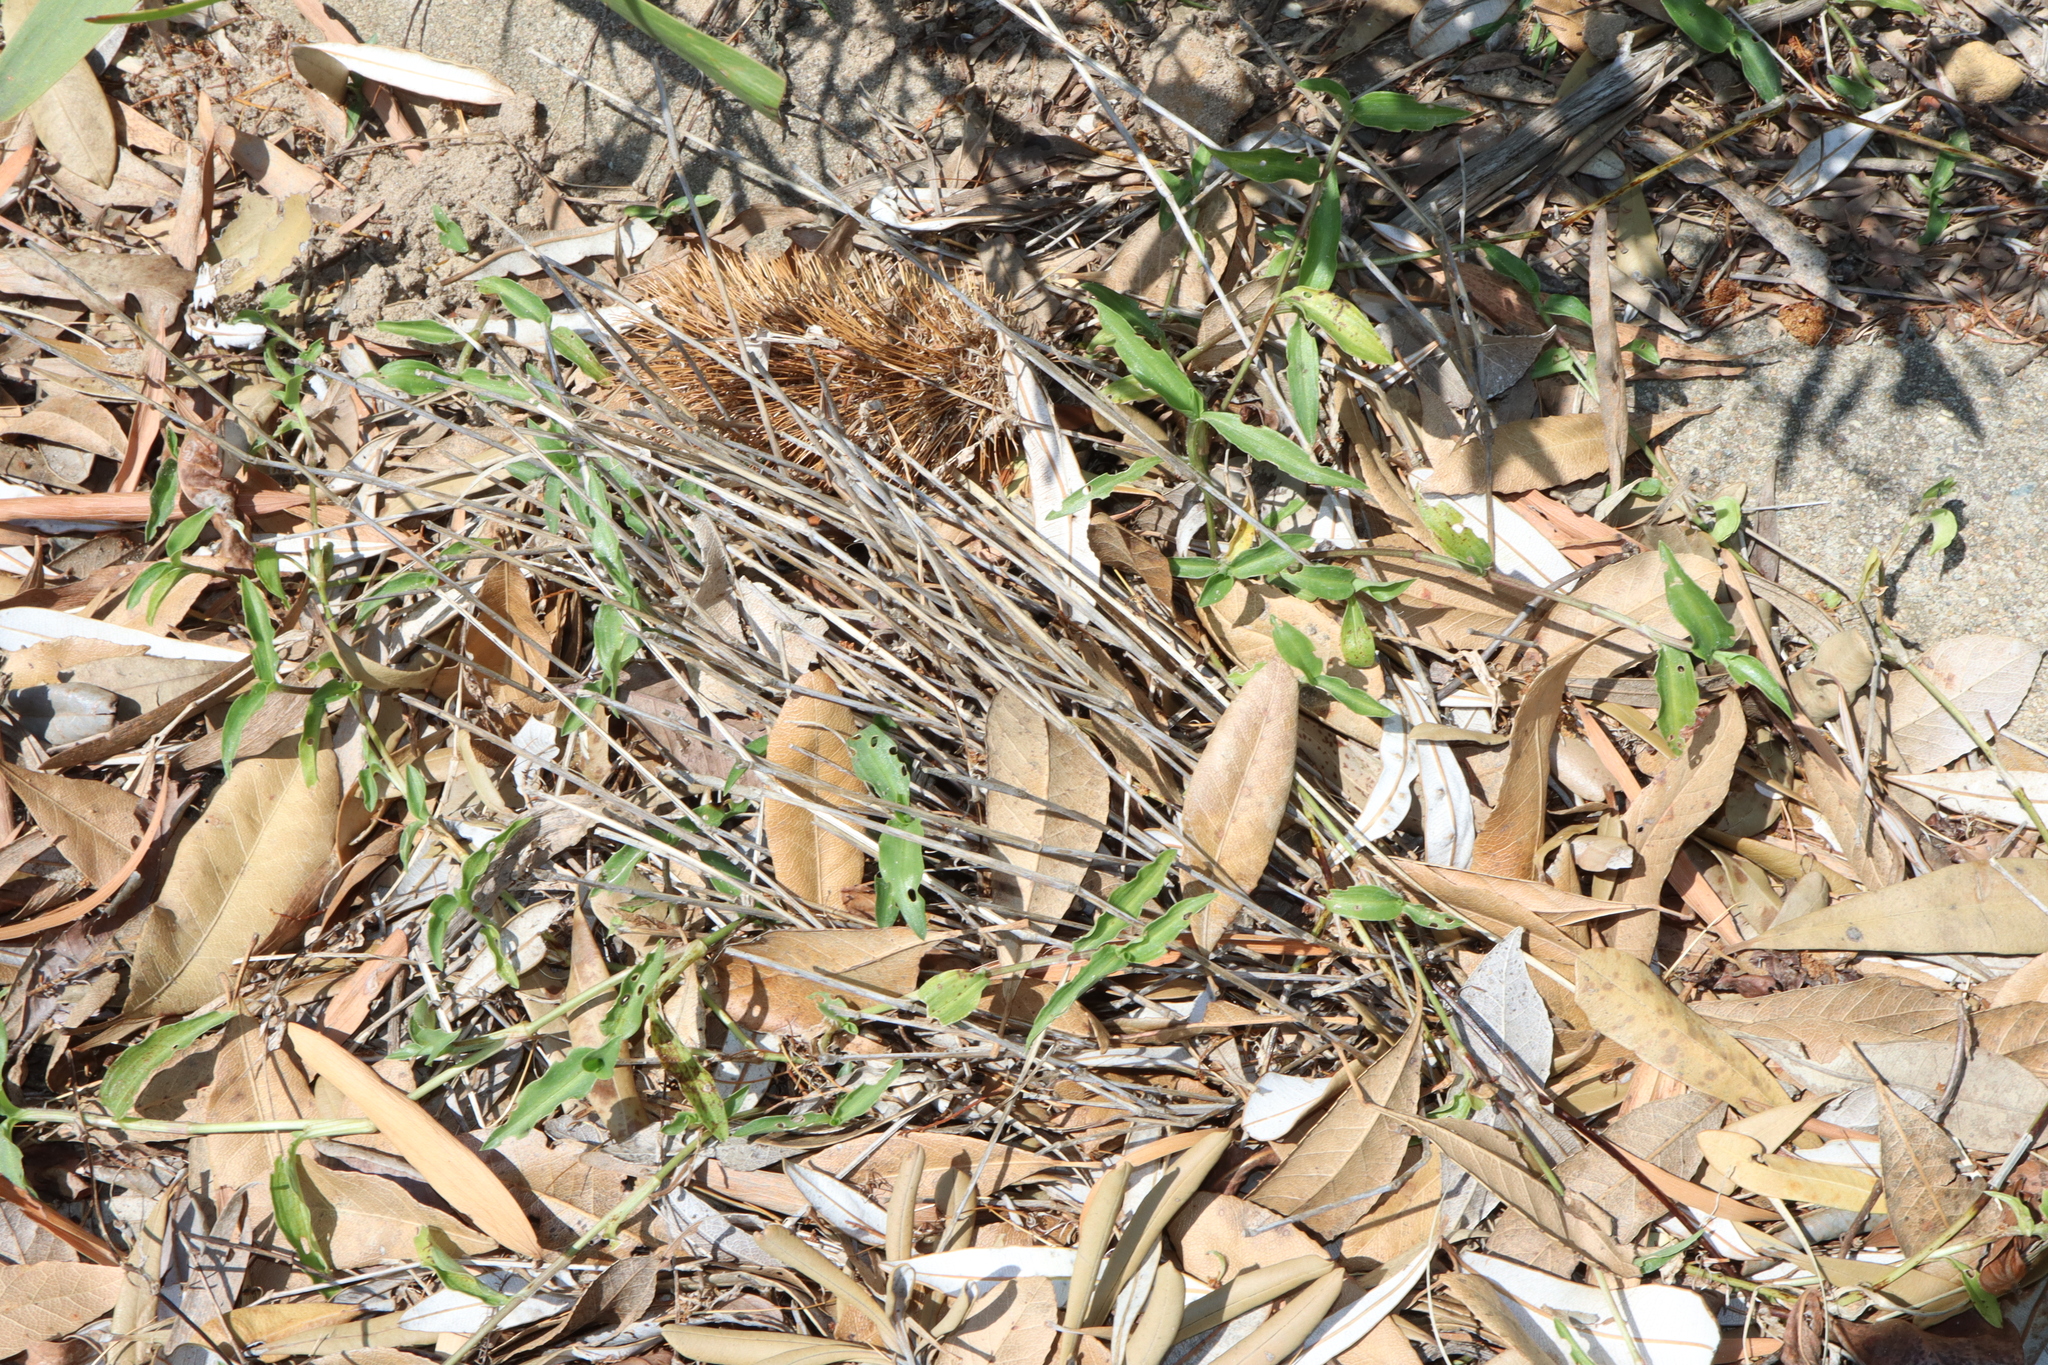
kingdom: Plantae
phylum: Tracheophyta
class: Liliopsida
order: Commelinales
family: Commelinaceae
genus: Commelina
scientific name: Commelina cyanea
